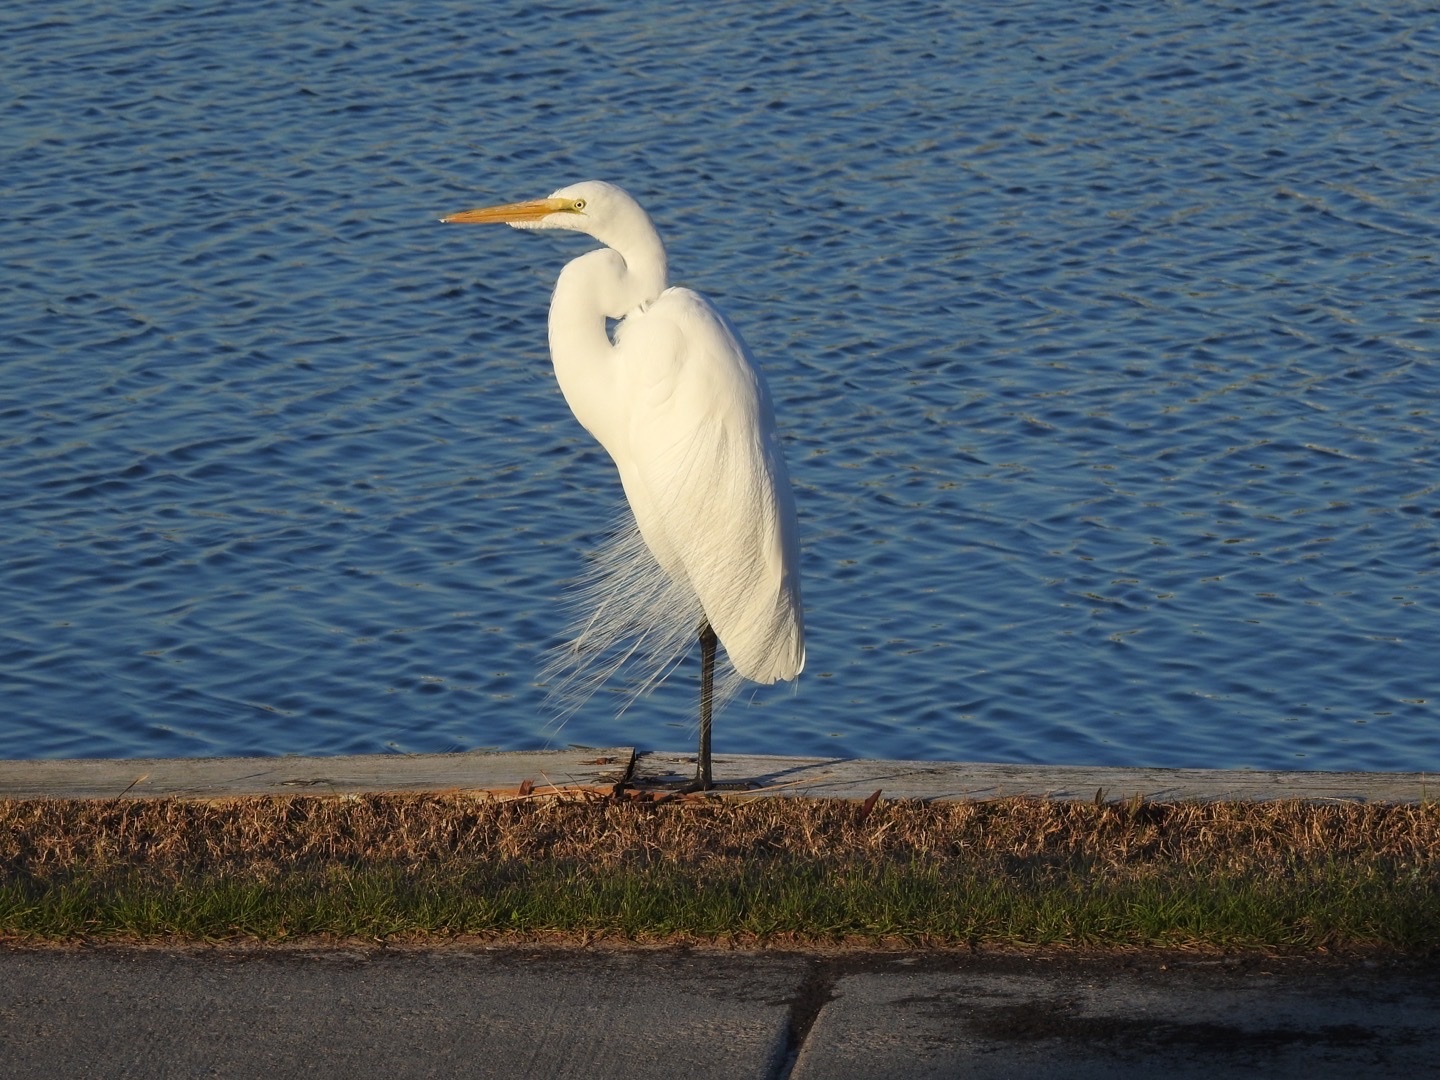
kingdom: Animalia
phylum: Chordata
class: Aves
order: Pelecaniformes
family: Ardeidae
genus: Ardea
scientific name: Ardea alba
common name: Great egret
